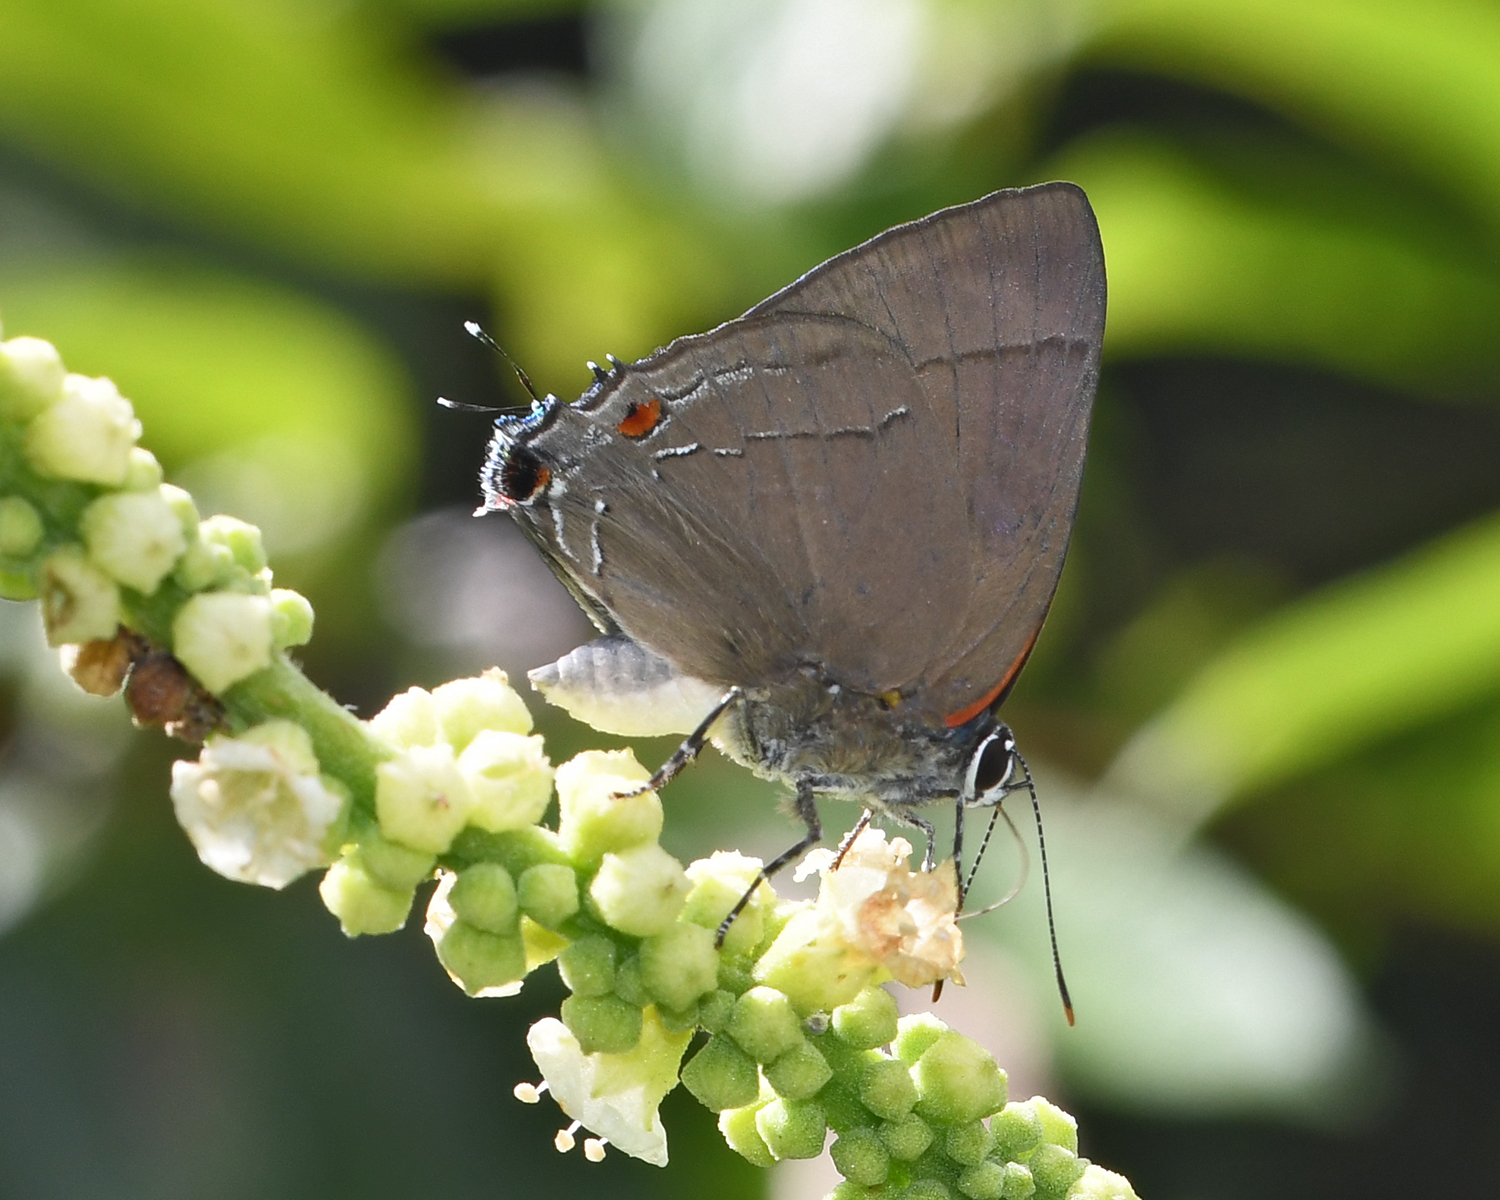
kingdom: Animalia
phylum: Arthropoda
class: Insecta
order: Lepidoptera
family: Lycaenidae
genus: Thecla
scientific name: Thecla spurina
